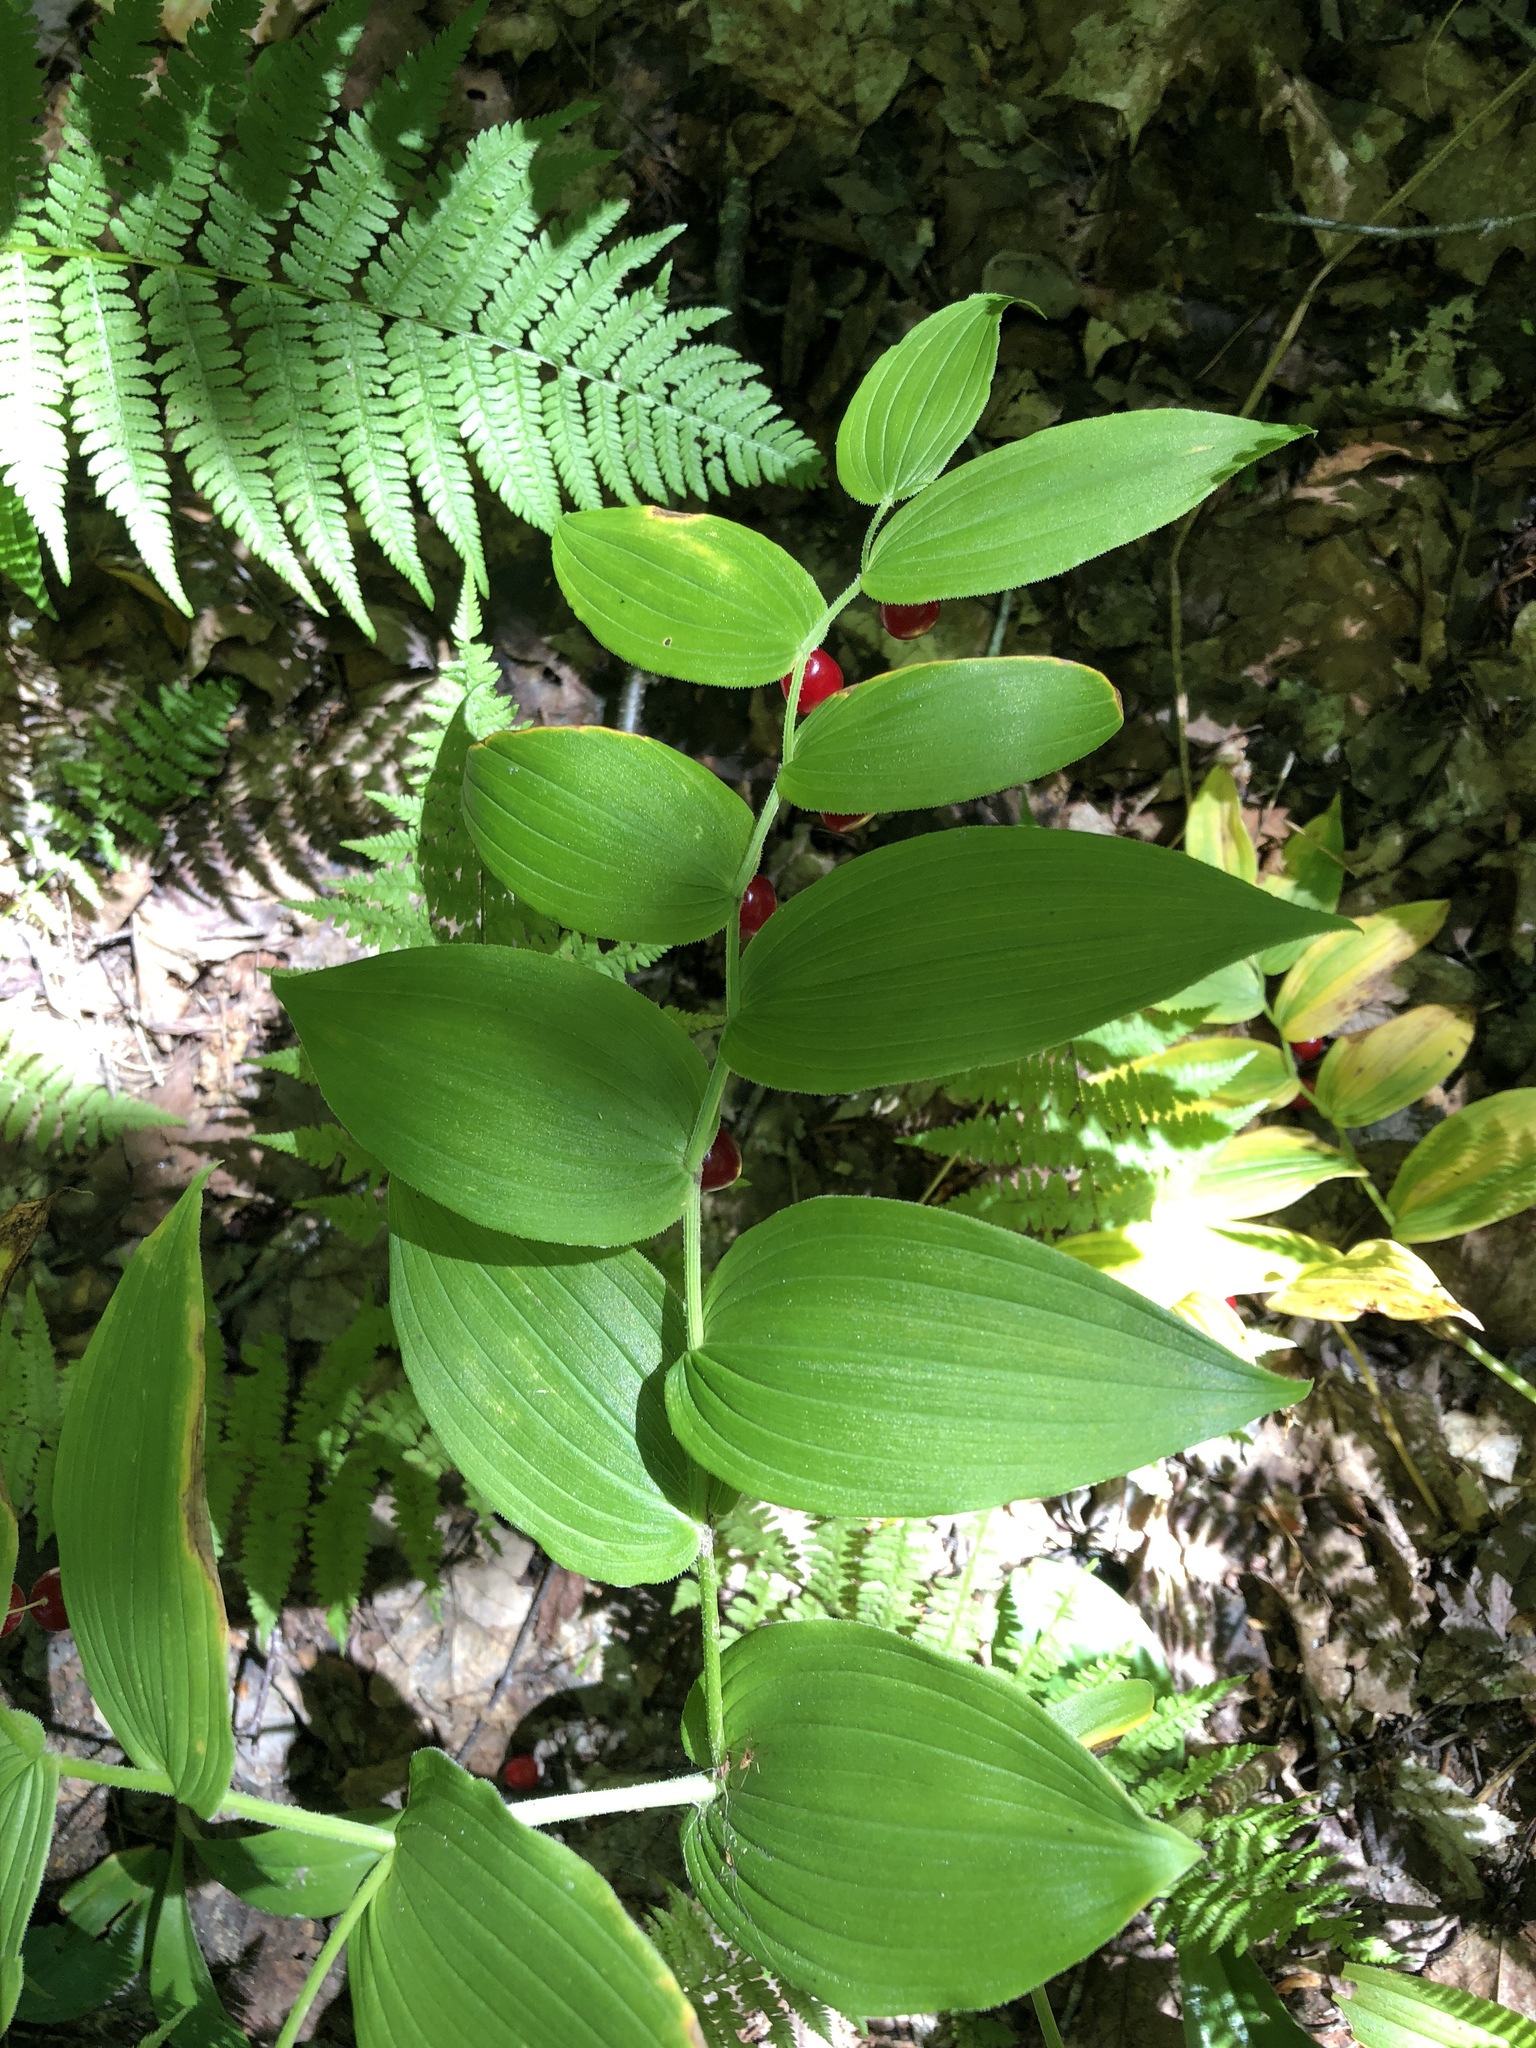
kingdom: Plantae
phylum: Tracheophyta
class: Liliopsida
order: Liliales
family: Liliaceae
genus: Streptopus
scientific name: Streptopus lanceolatus
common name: Rose mandarin
